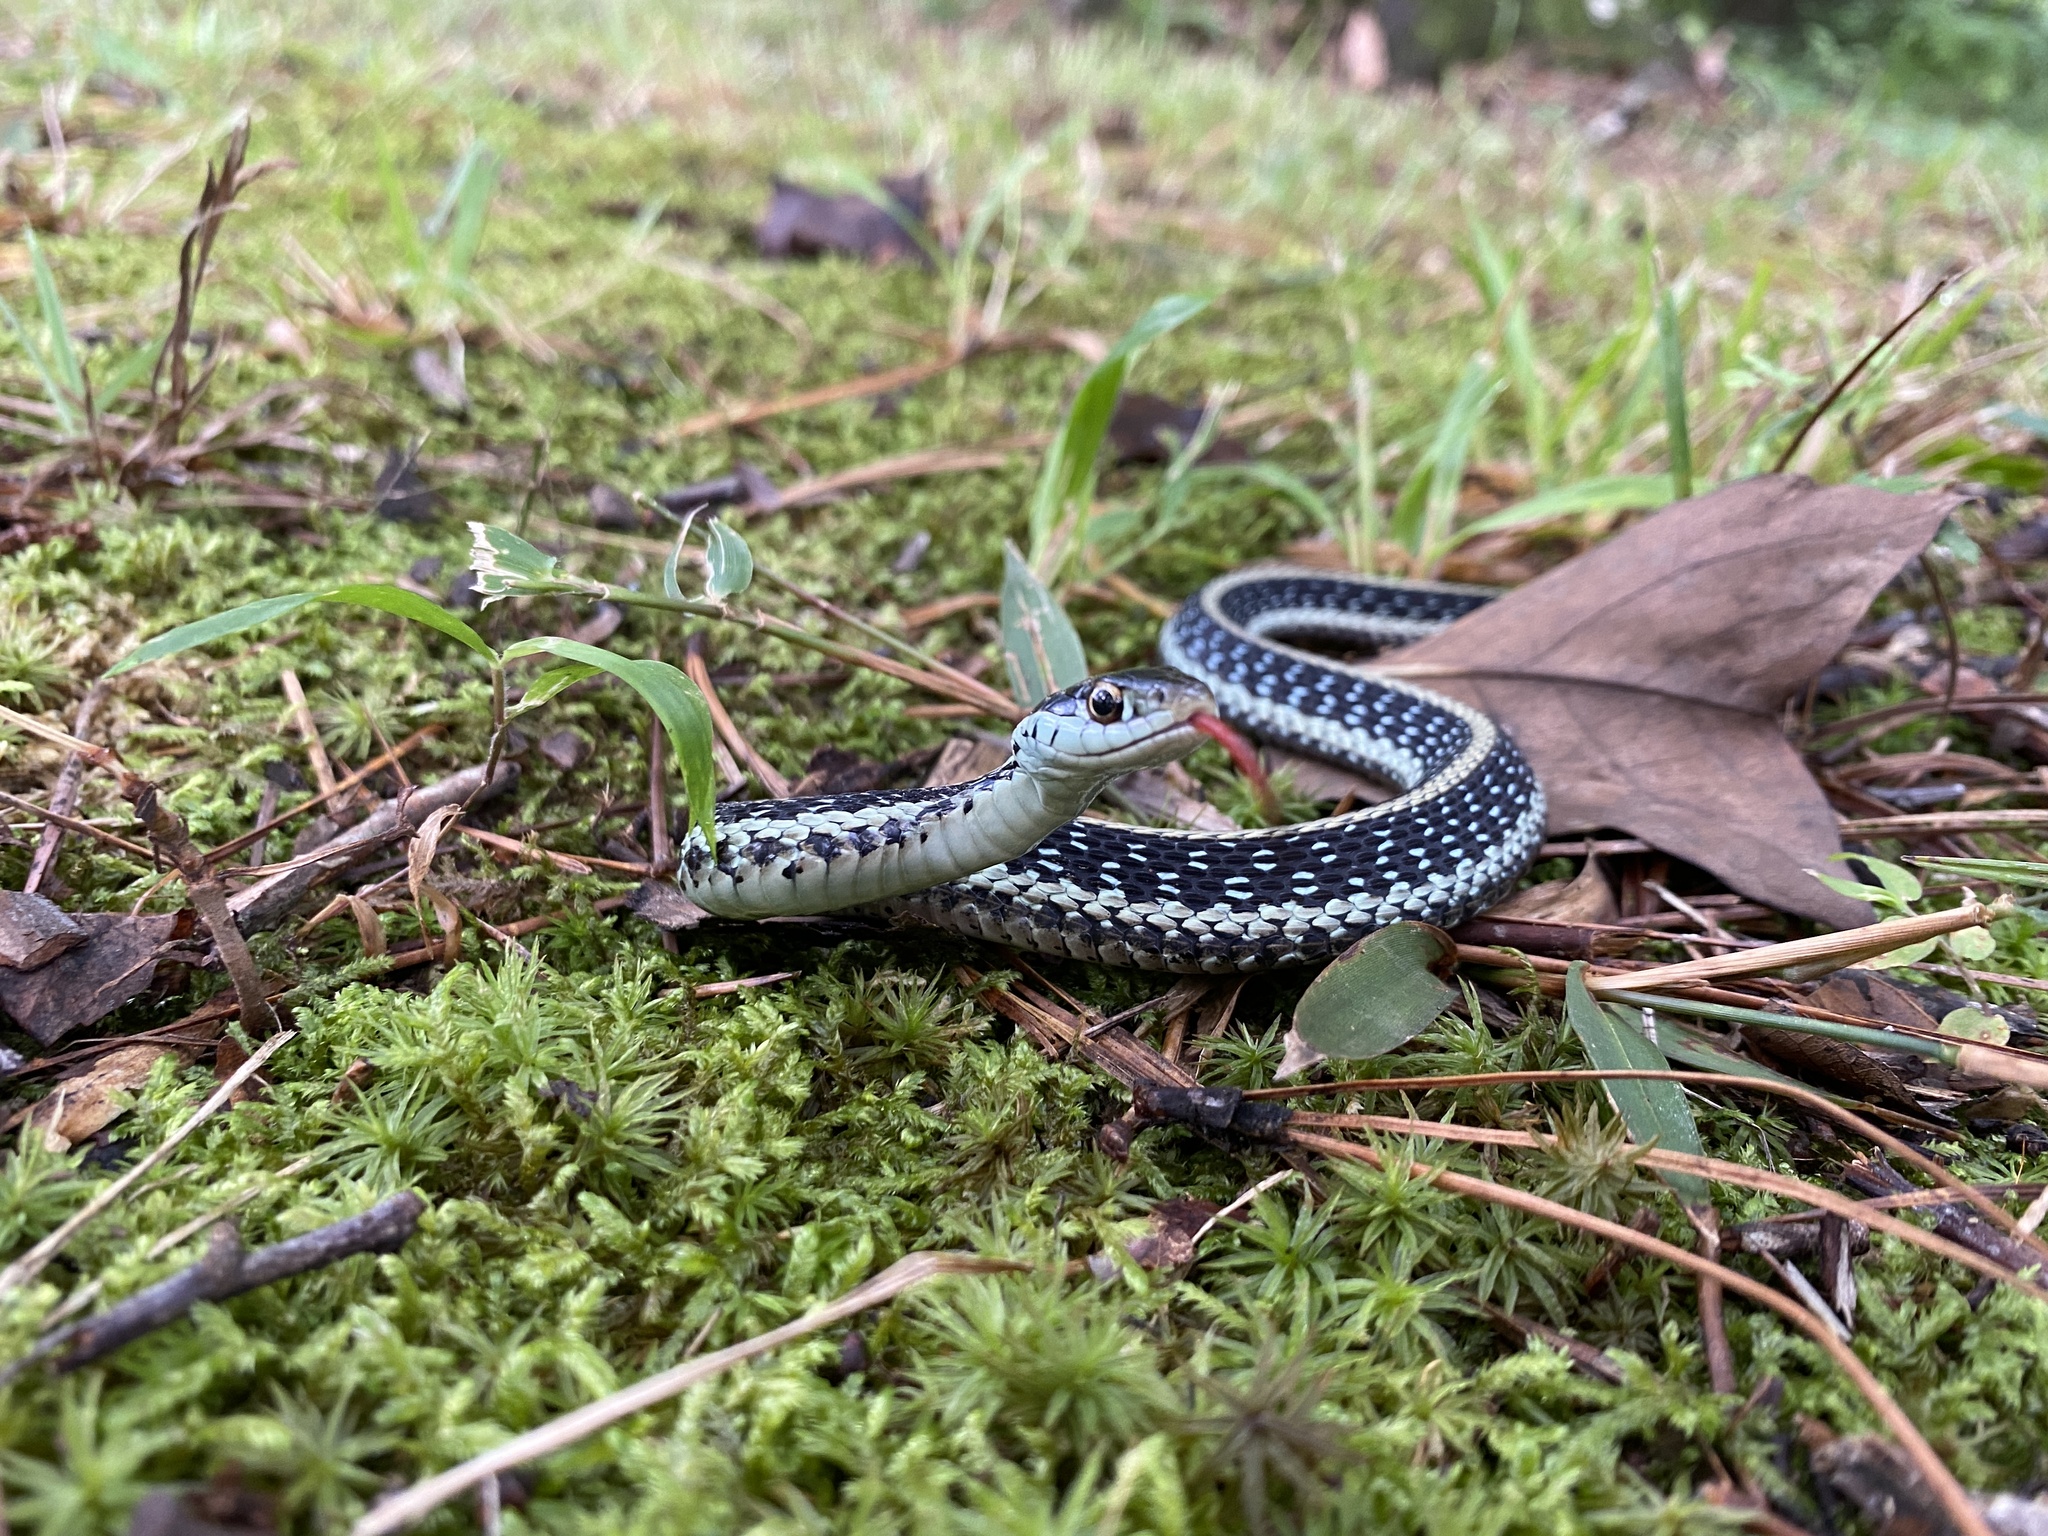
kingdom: Animalia
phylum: Chordata
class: Squamata
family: Colubridae
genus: Thamnophis
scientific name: Thamnophis sirtalis
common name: Common garter snake
